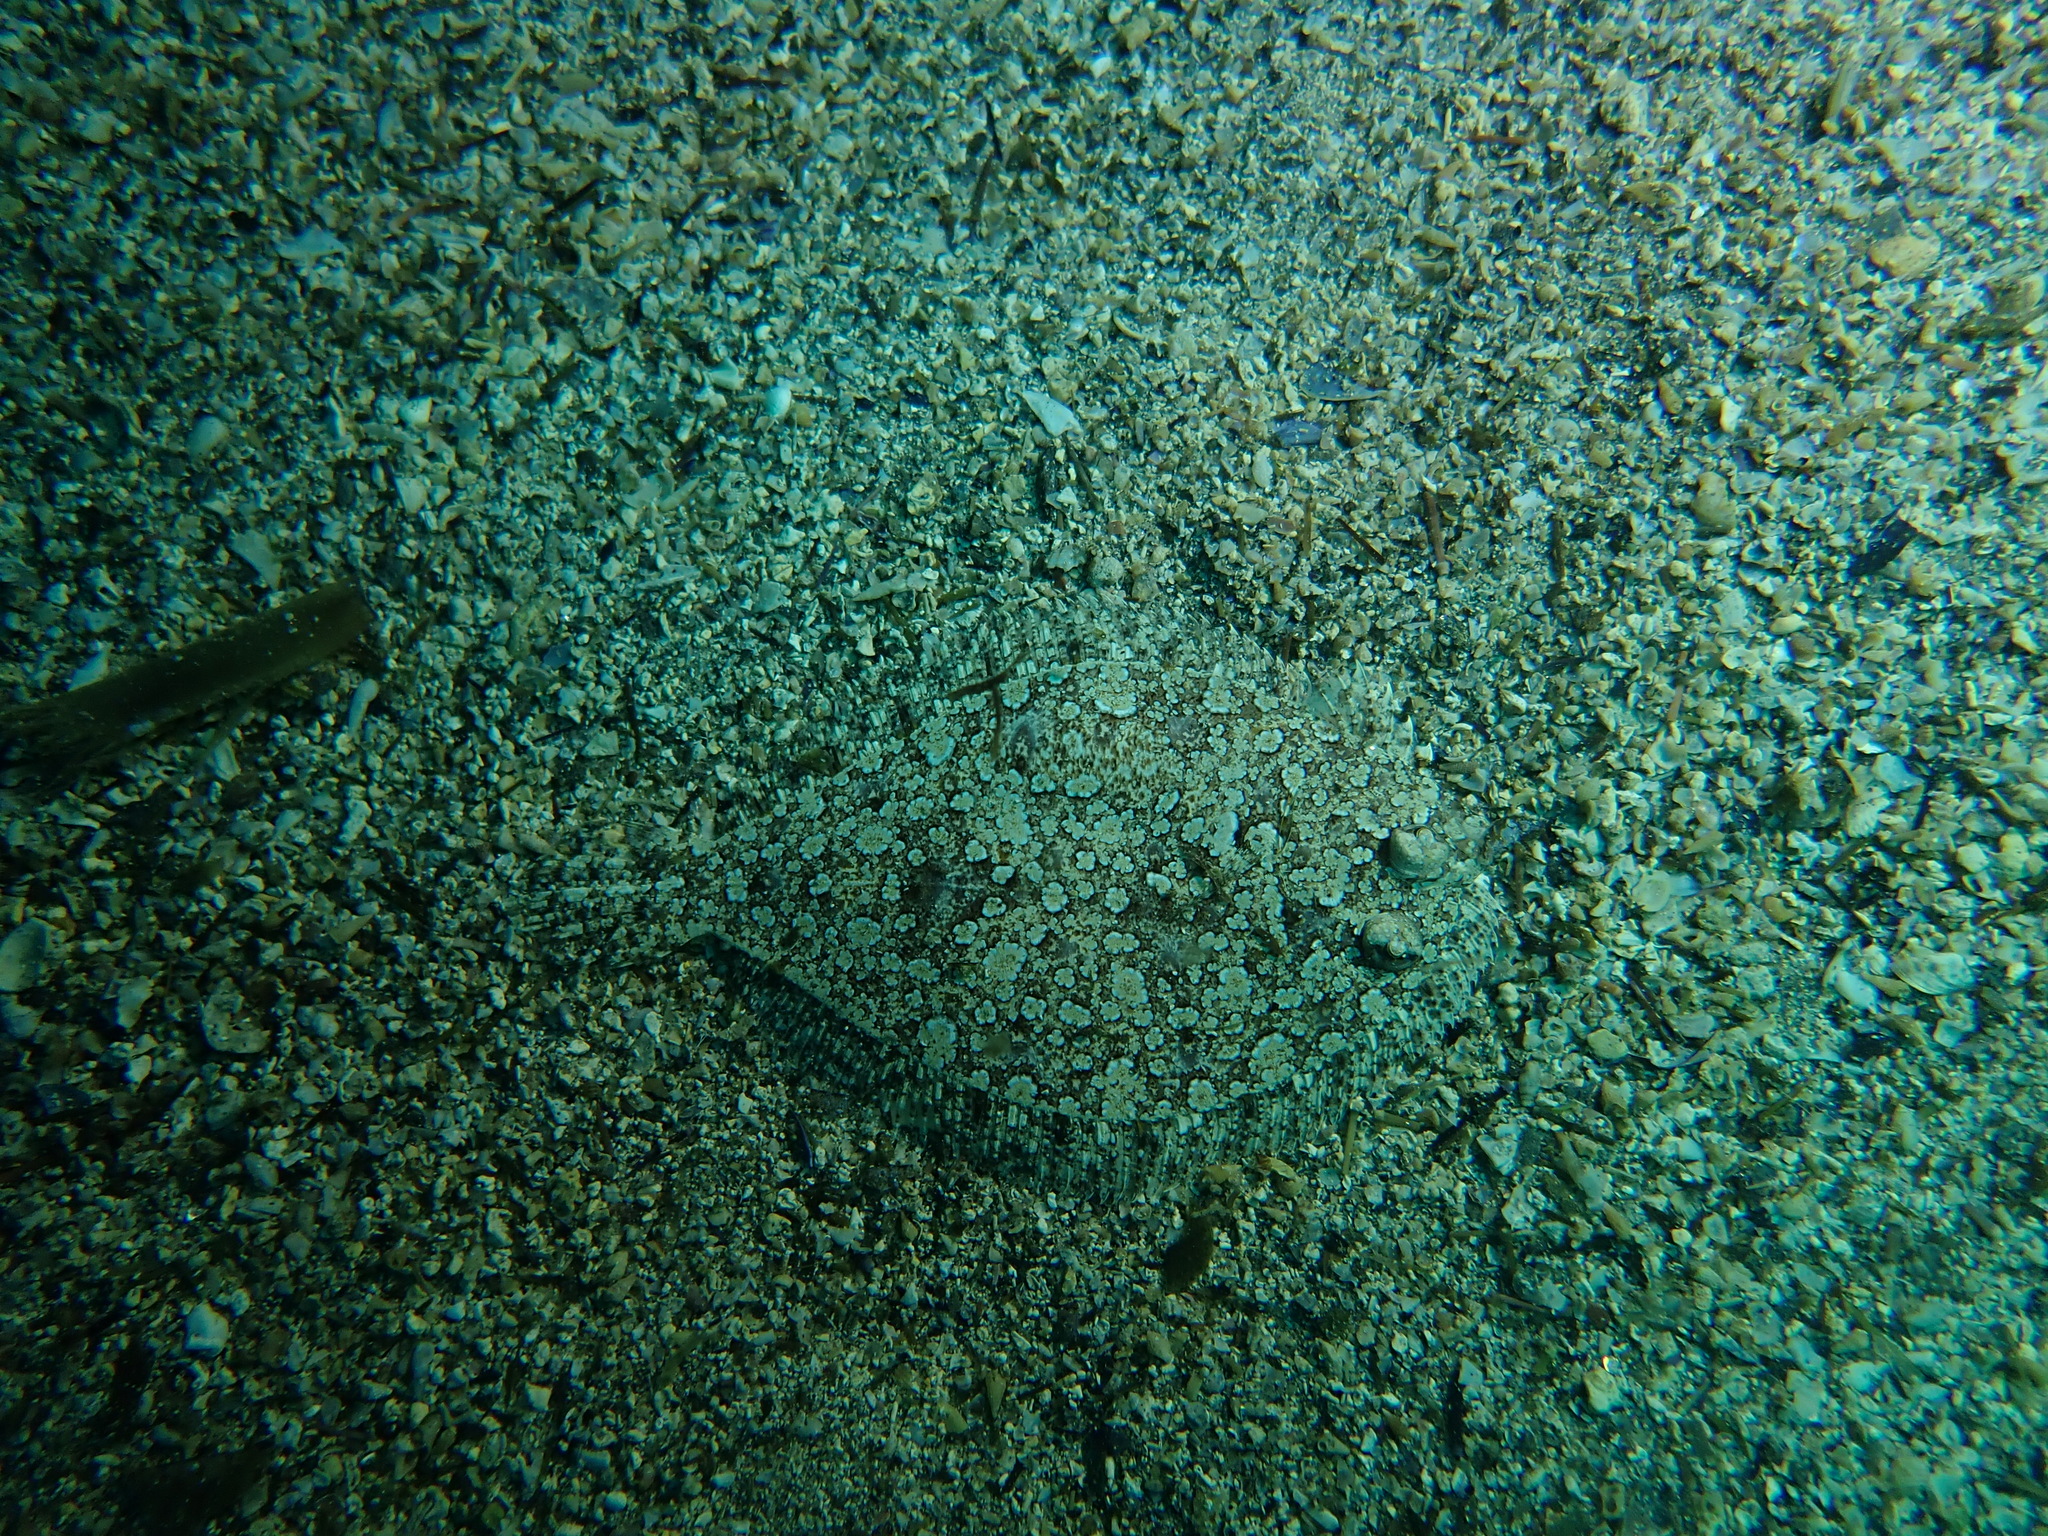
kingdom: Animalia
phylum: Chordata
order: Pleuronectiformes
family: Bothidae
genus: Bothus
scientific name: Bothus podas
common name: Wide-eyed flounder
